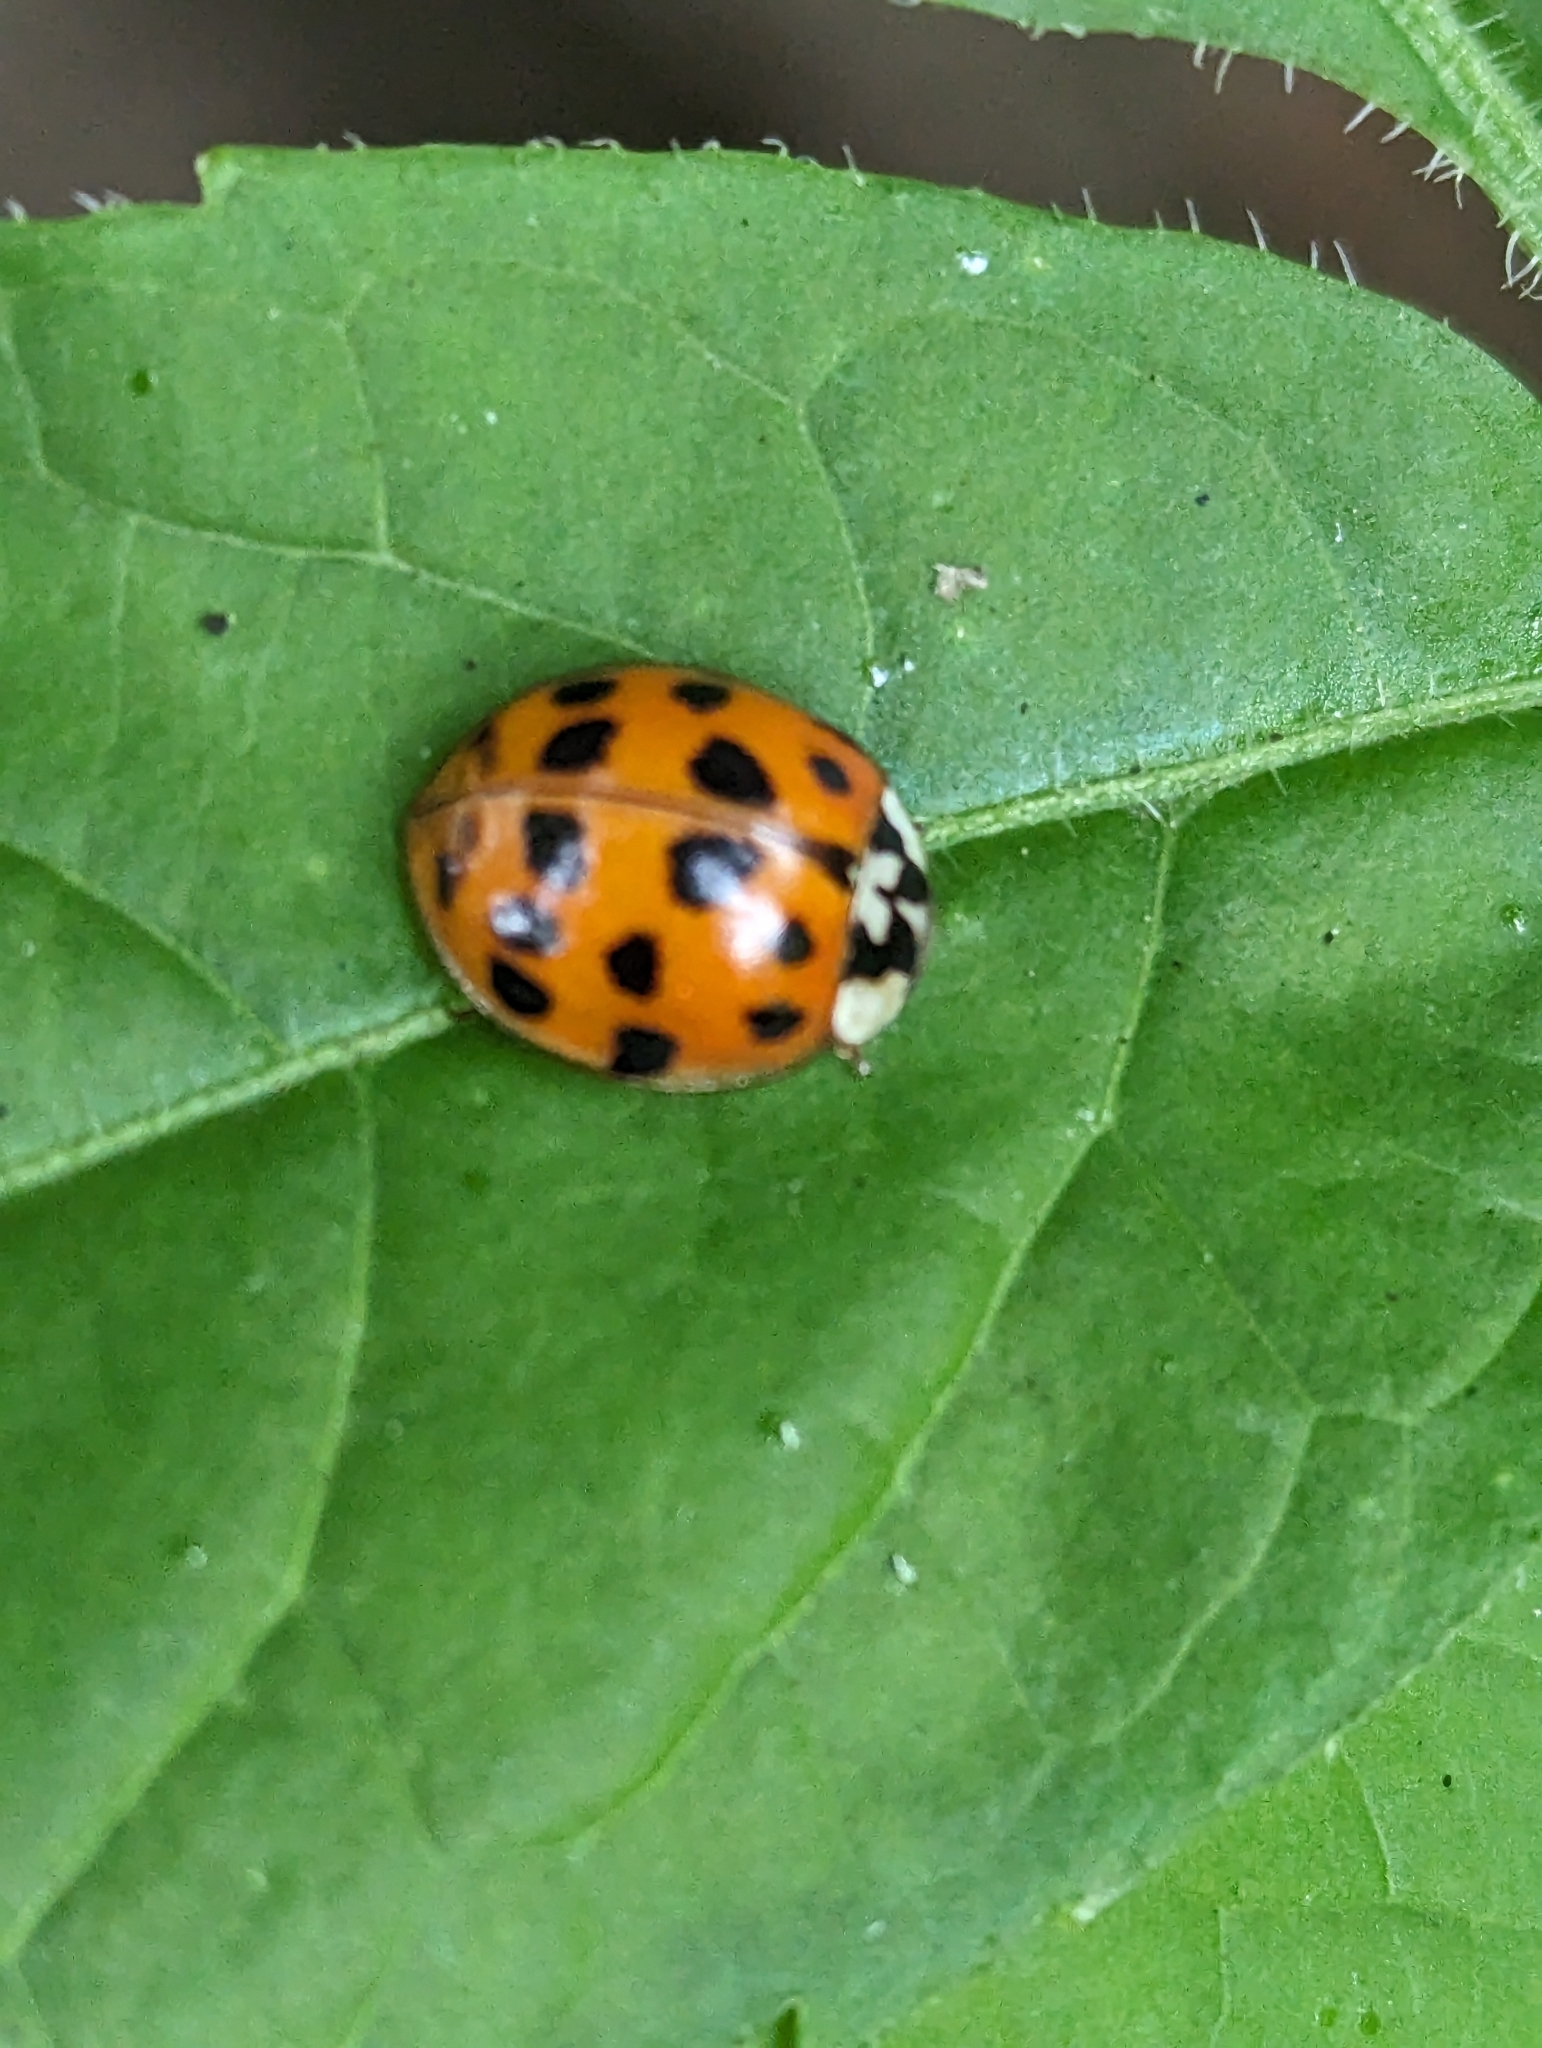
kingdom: Animalia
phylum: Arthropoda
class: Insecta
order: Coleoptera
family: Coccinellidae
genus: Harmonia
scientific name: Harmonia axyridis
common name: Harlequin ladybird
